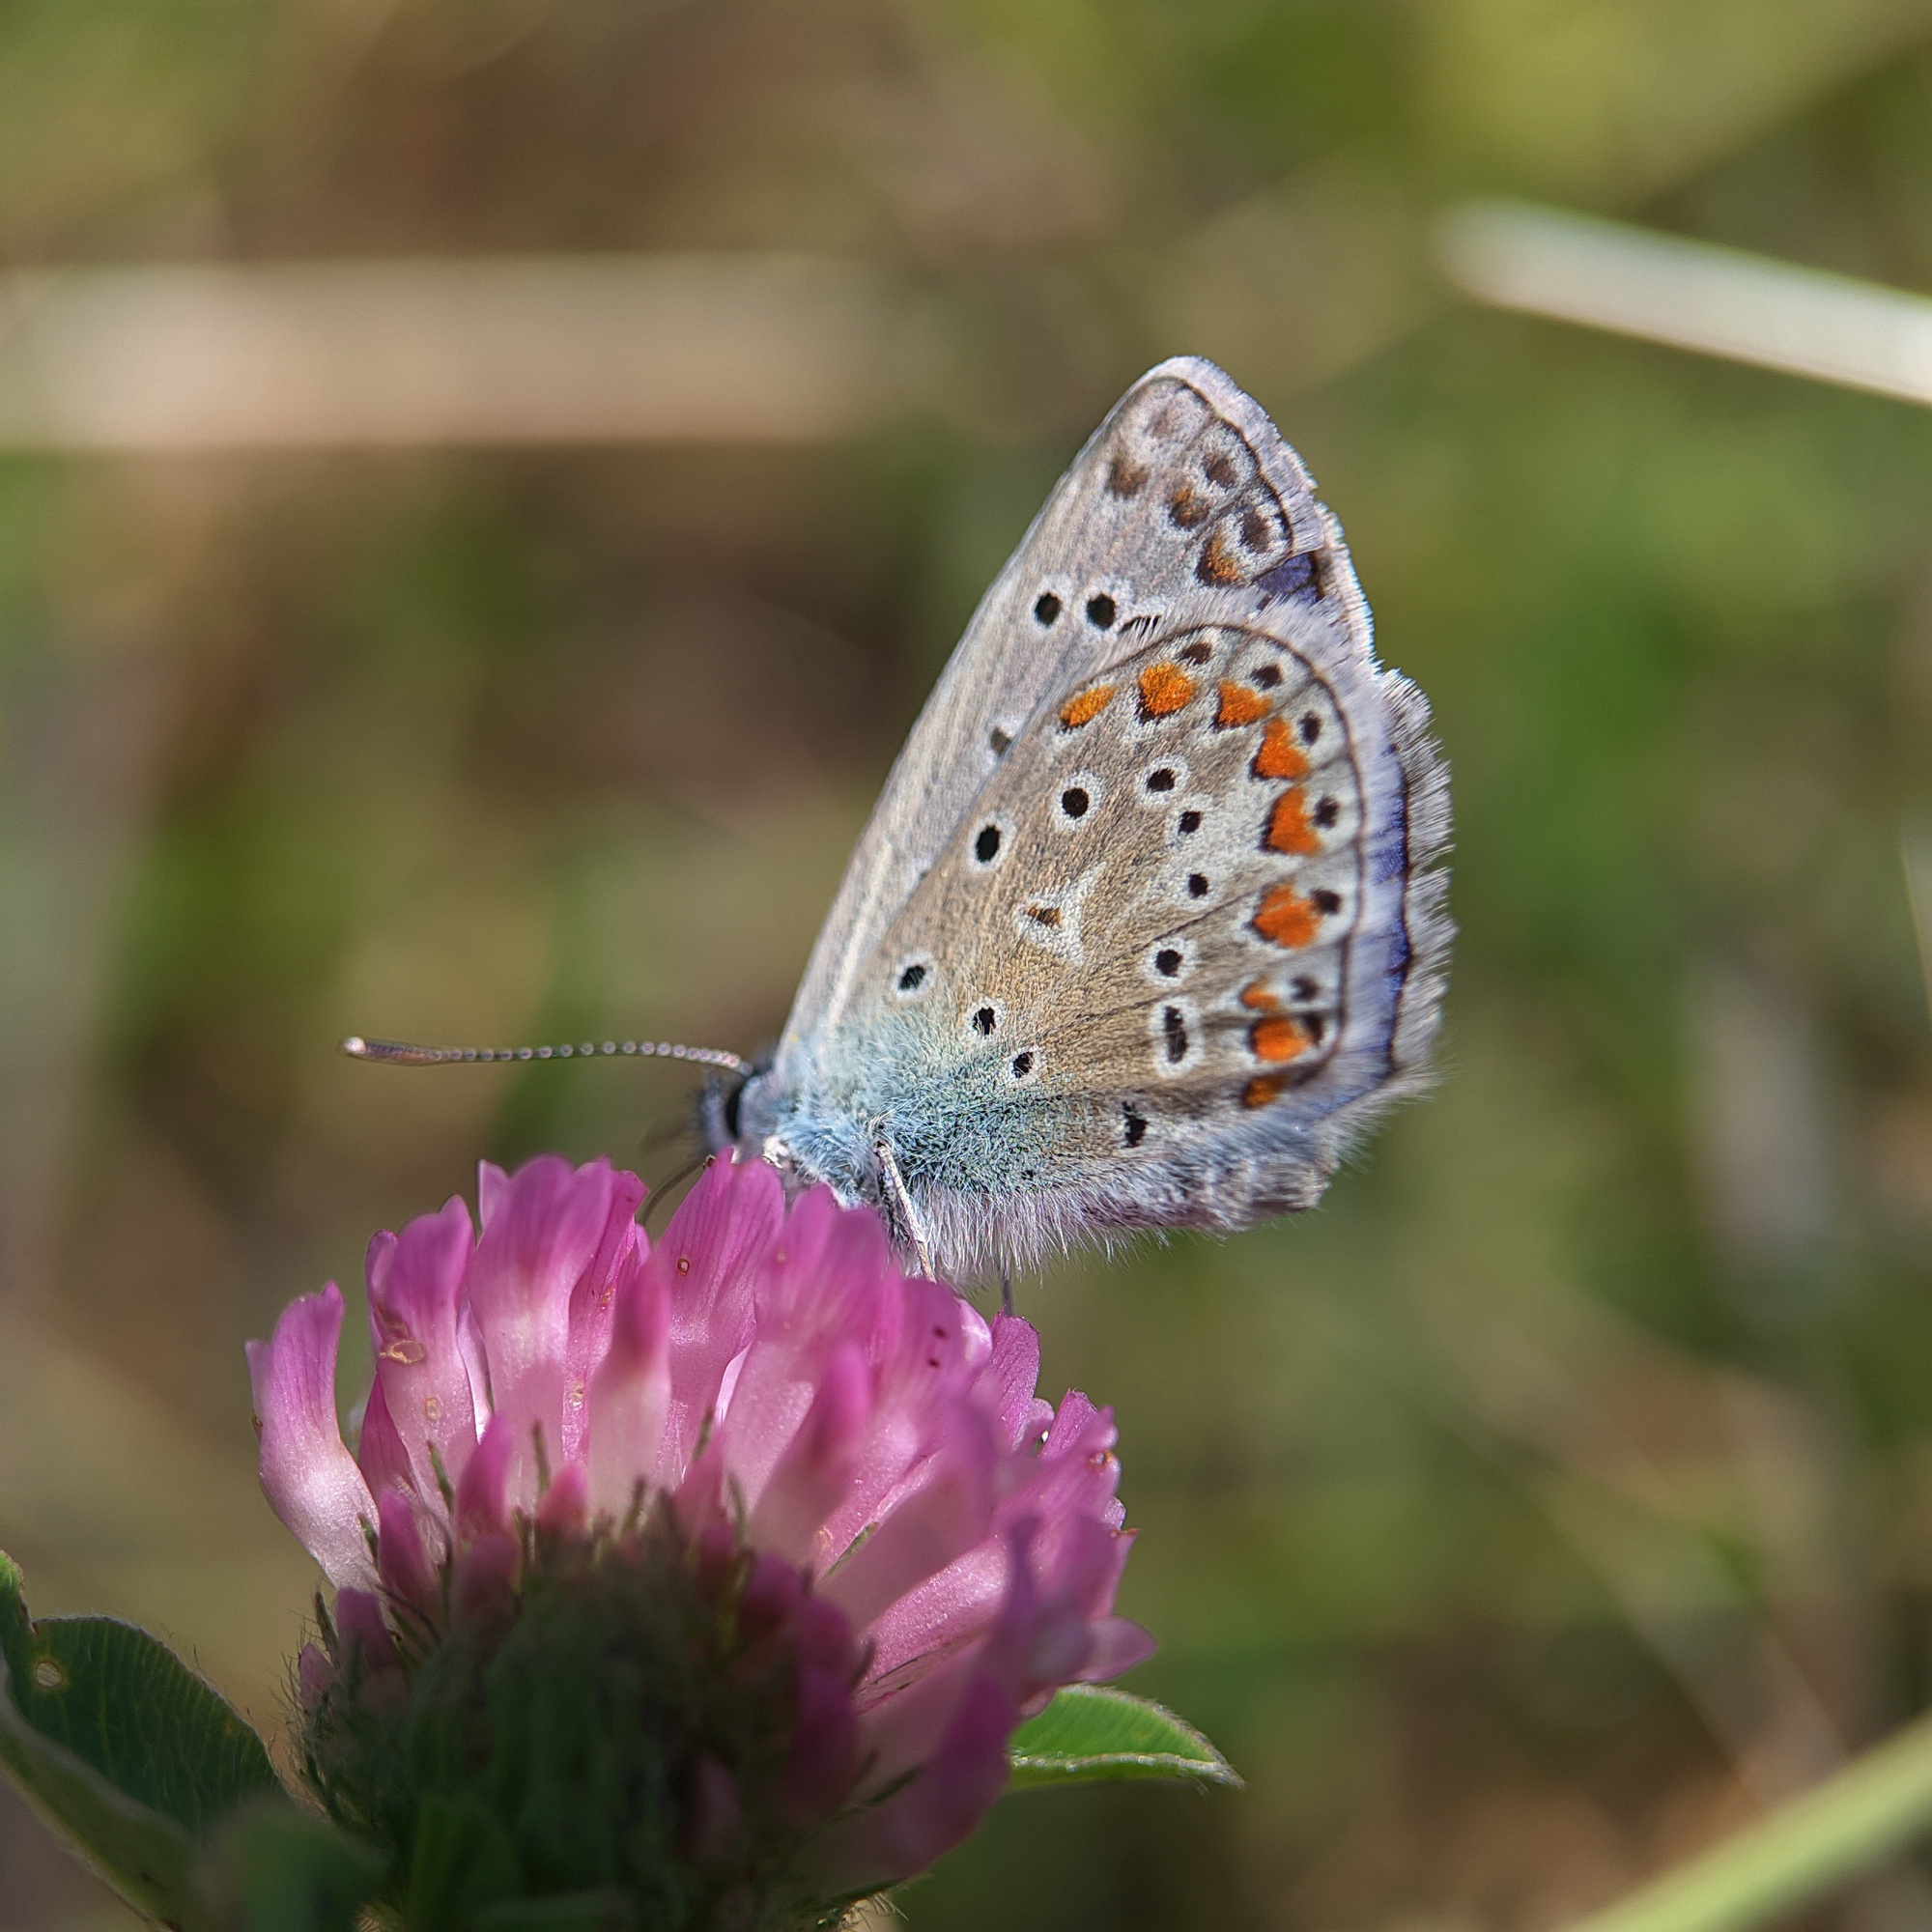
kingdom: Animalia
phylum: Arthropoda
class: Insecta
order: Lepidoptera
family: Lycaenidae
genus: Polyommatus
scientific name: Polyommatus icarus
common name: Common blue
